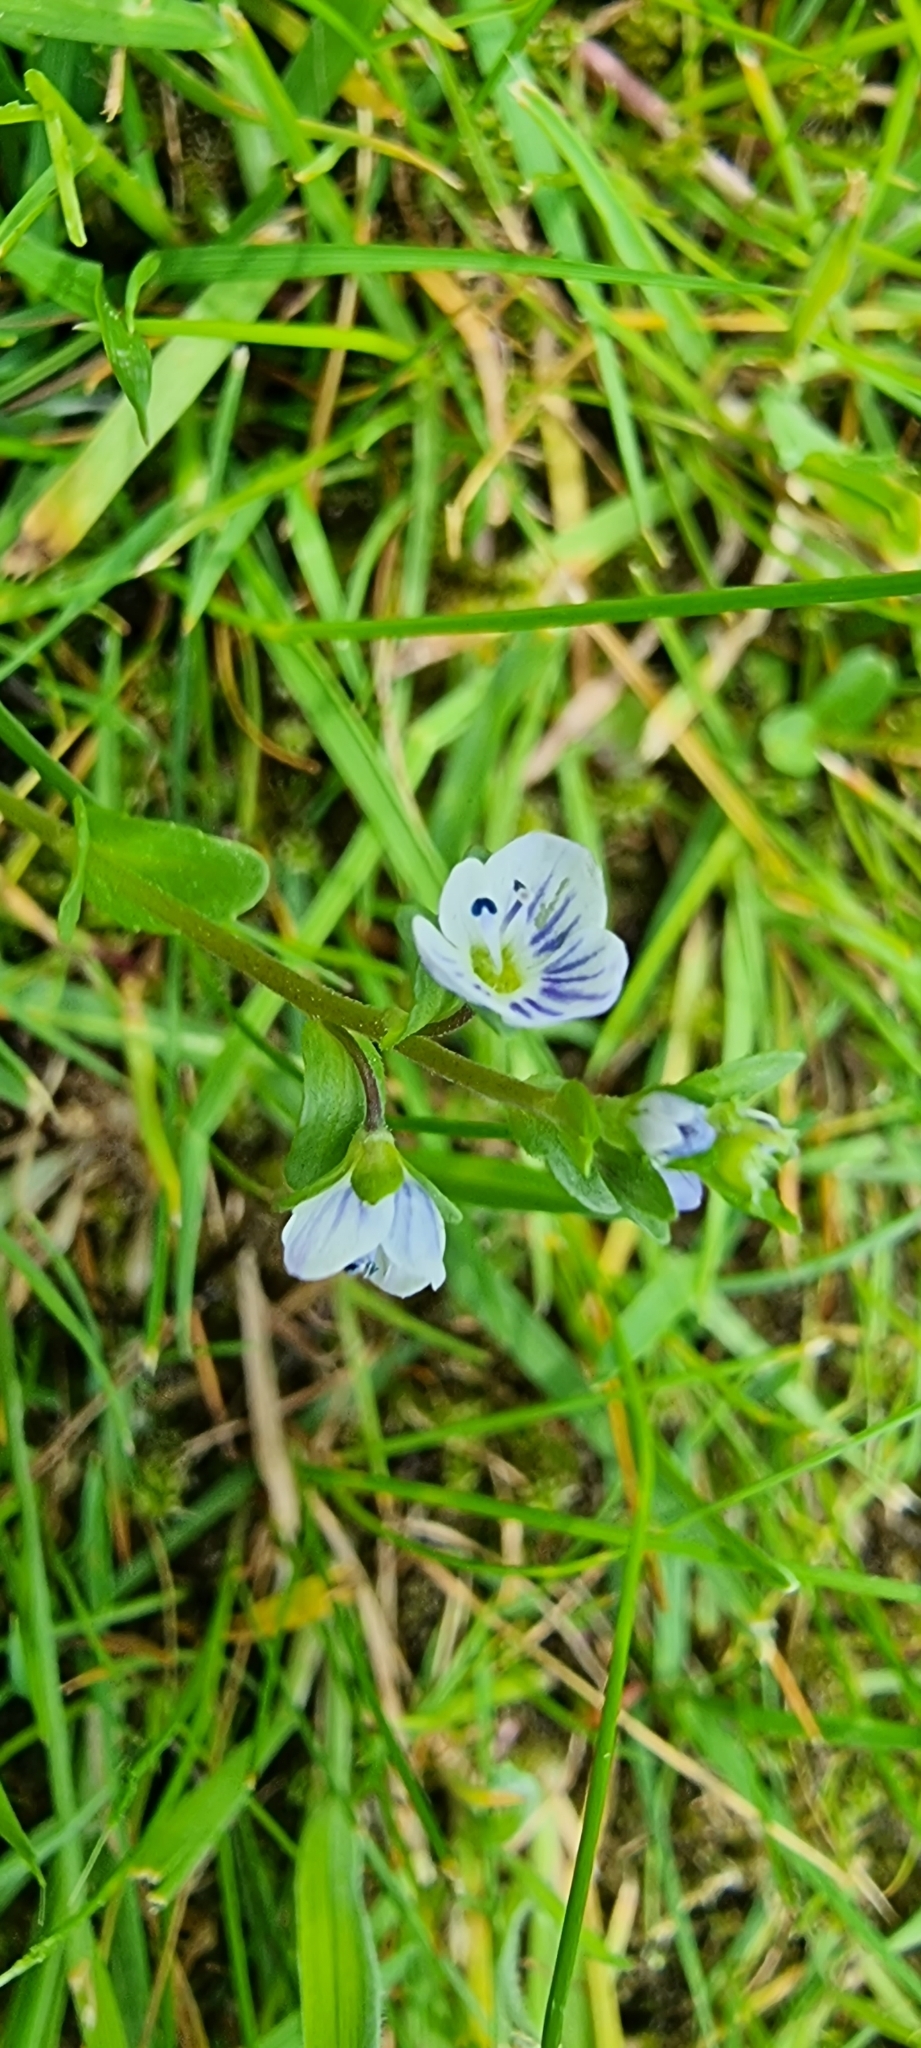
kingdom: Plantae
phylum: Tracheophyta
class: Magnoliopsida
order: Lamiales
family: Plantaginaceae
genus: Veronica
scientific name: Veronica serpyllifolia
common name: Thyme-leaved speedwell
